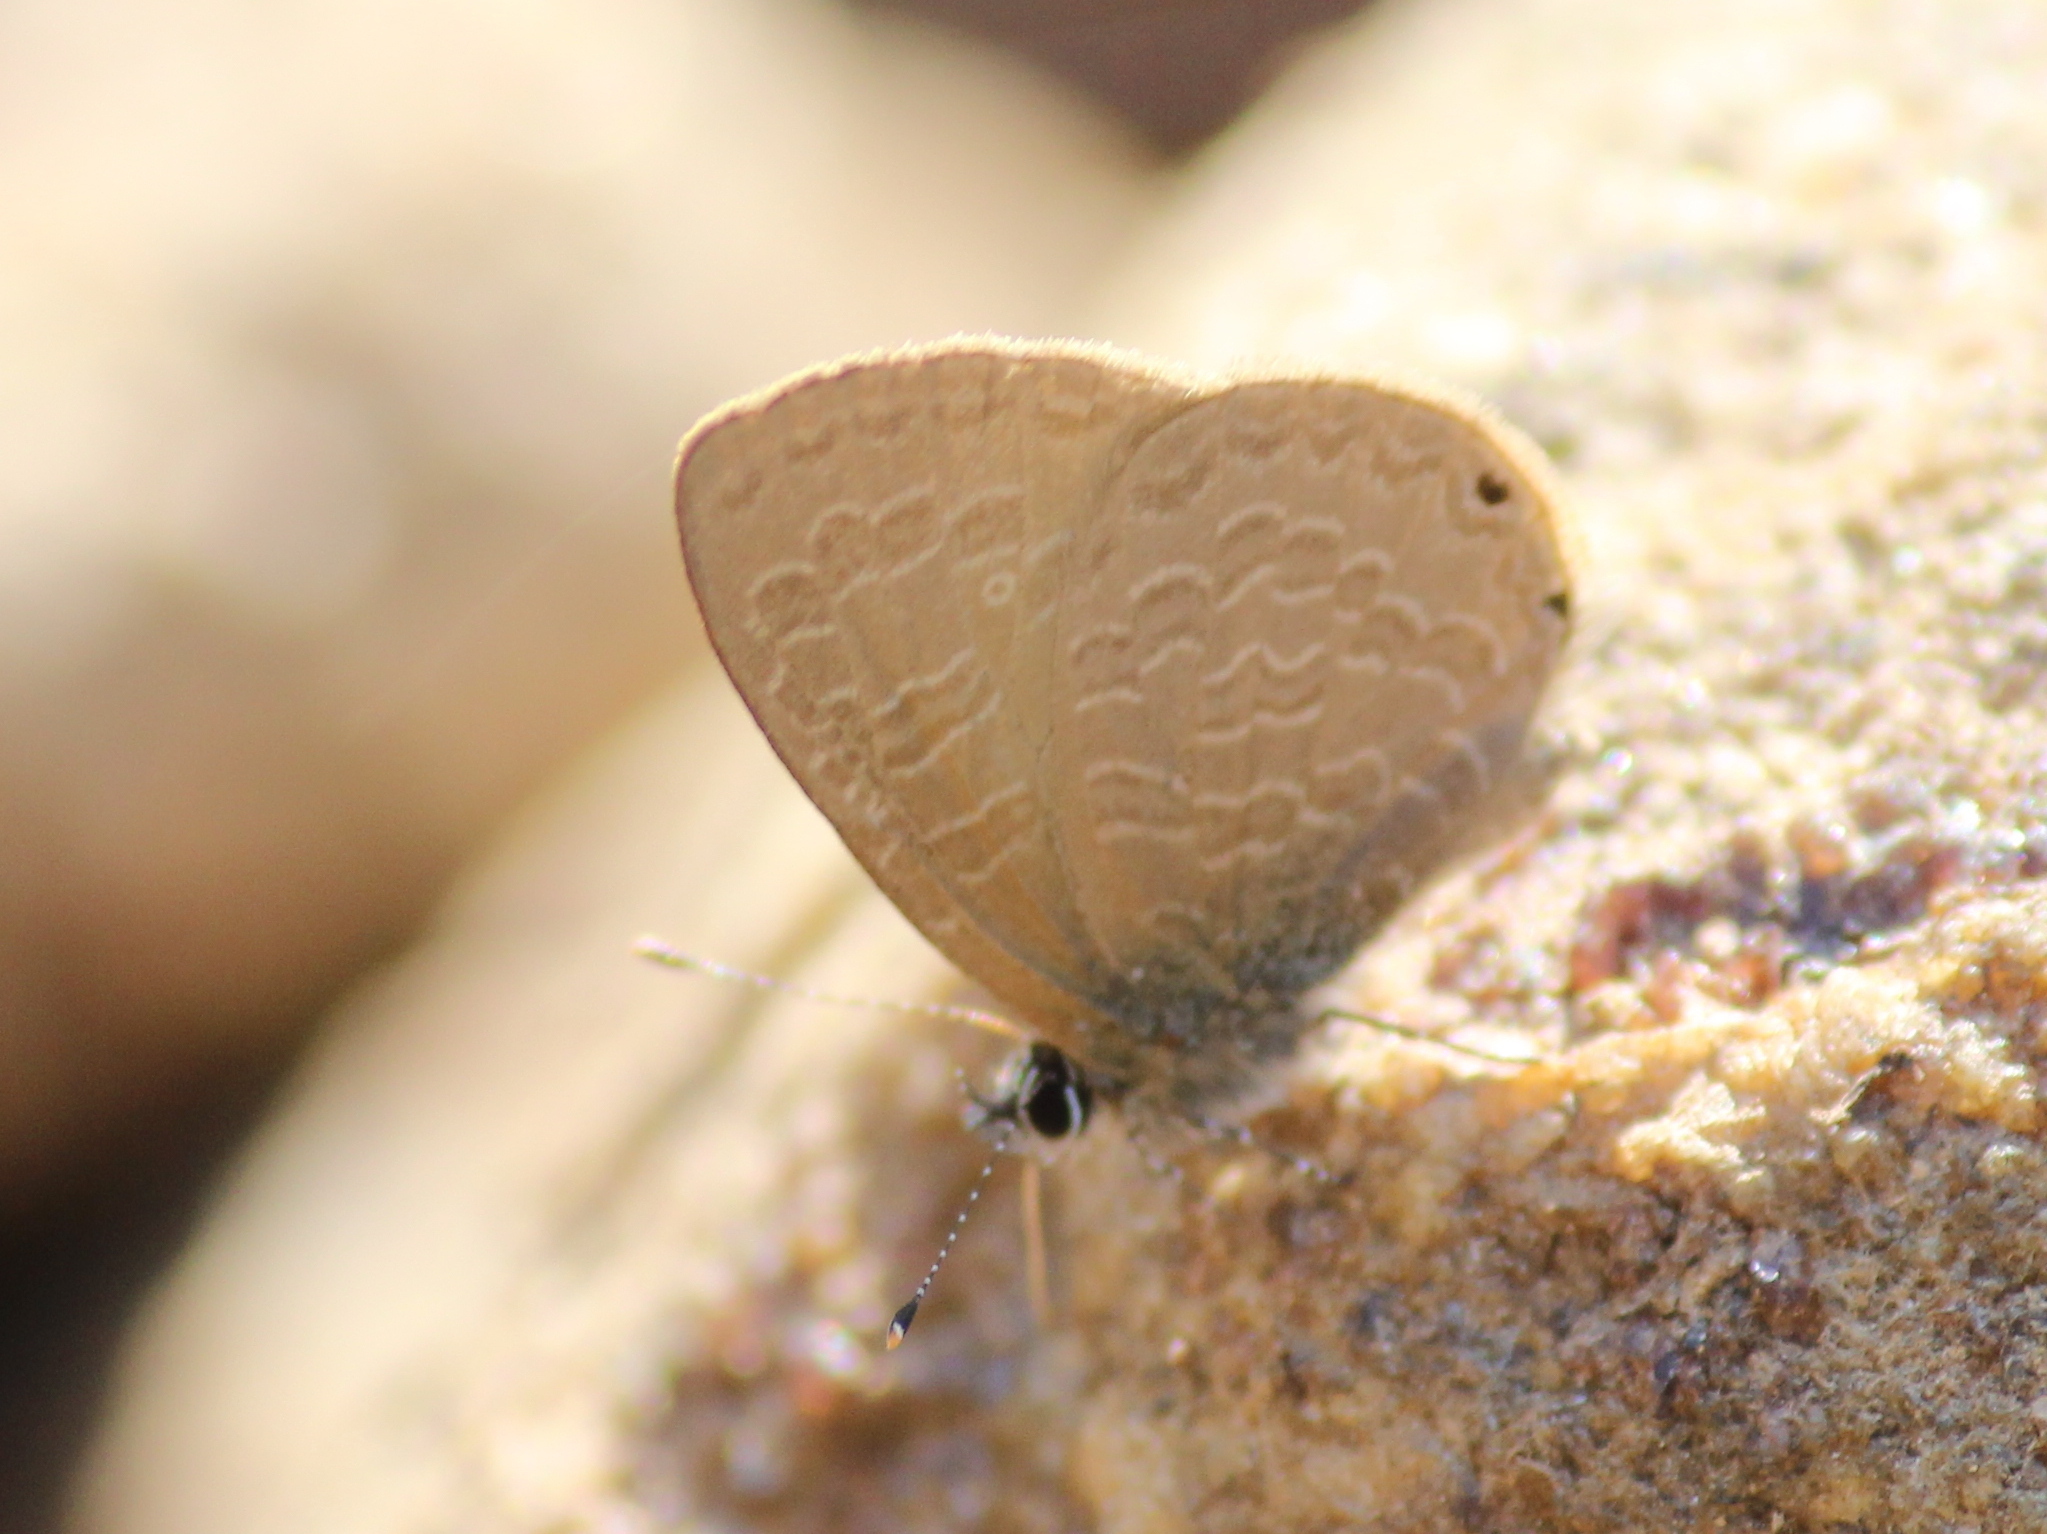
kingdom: Animalia
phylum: Arthropoda
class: Insecta
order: Lepidoptera
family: Lycaenidae
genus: Petrelaea
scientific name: Petrelaea dana
